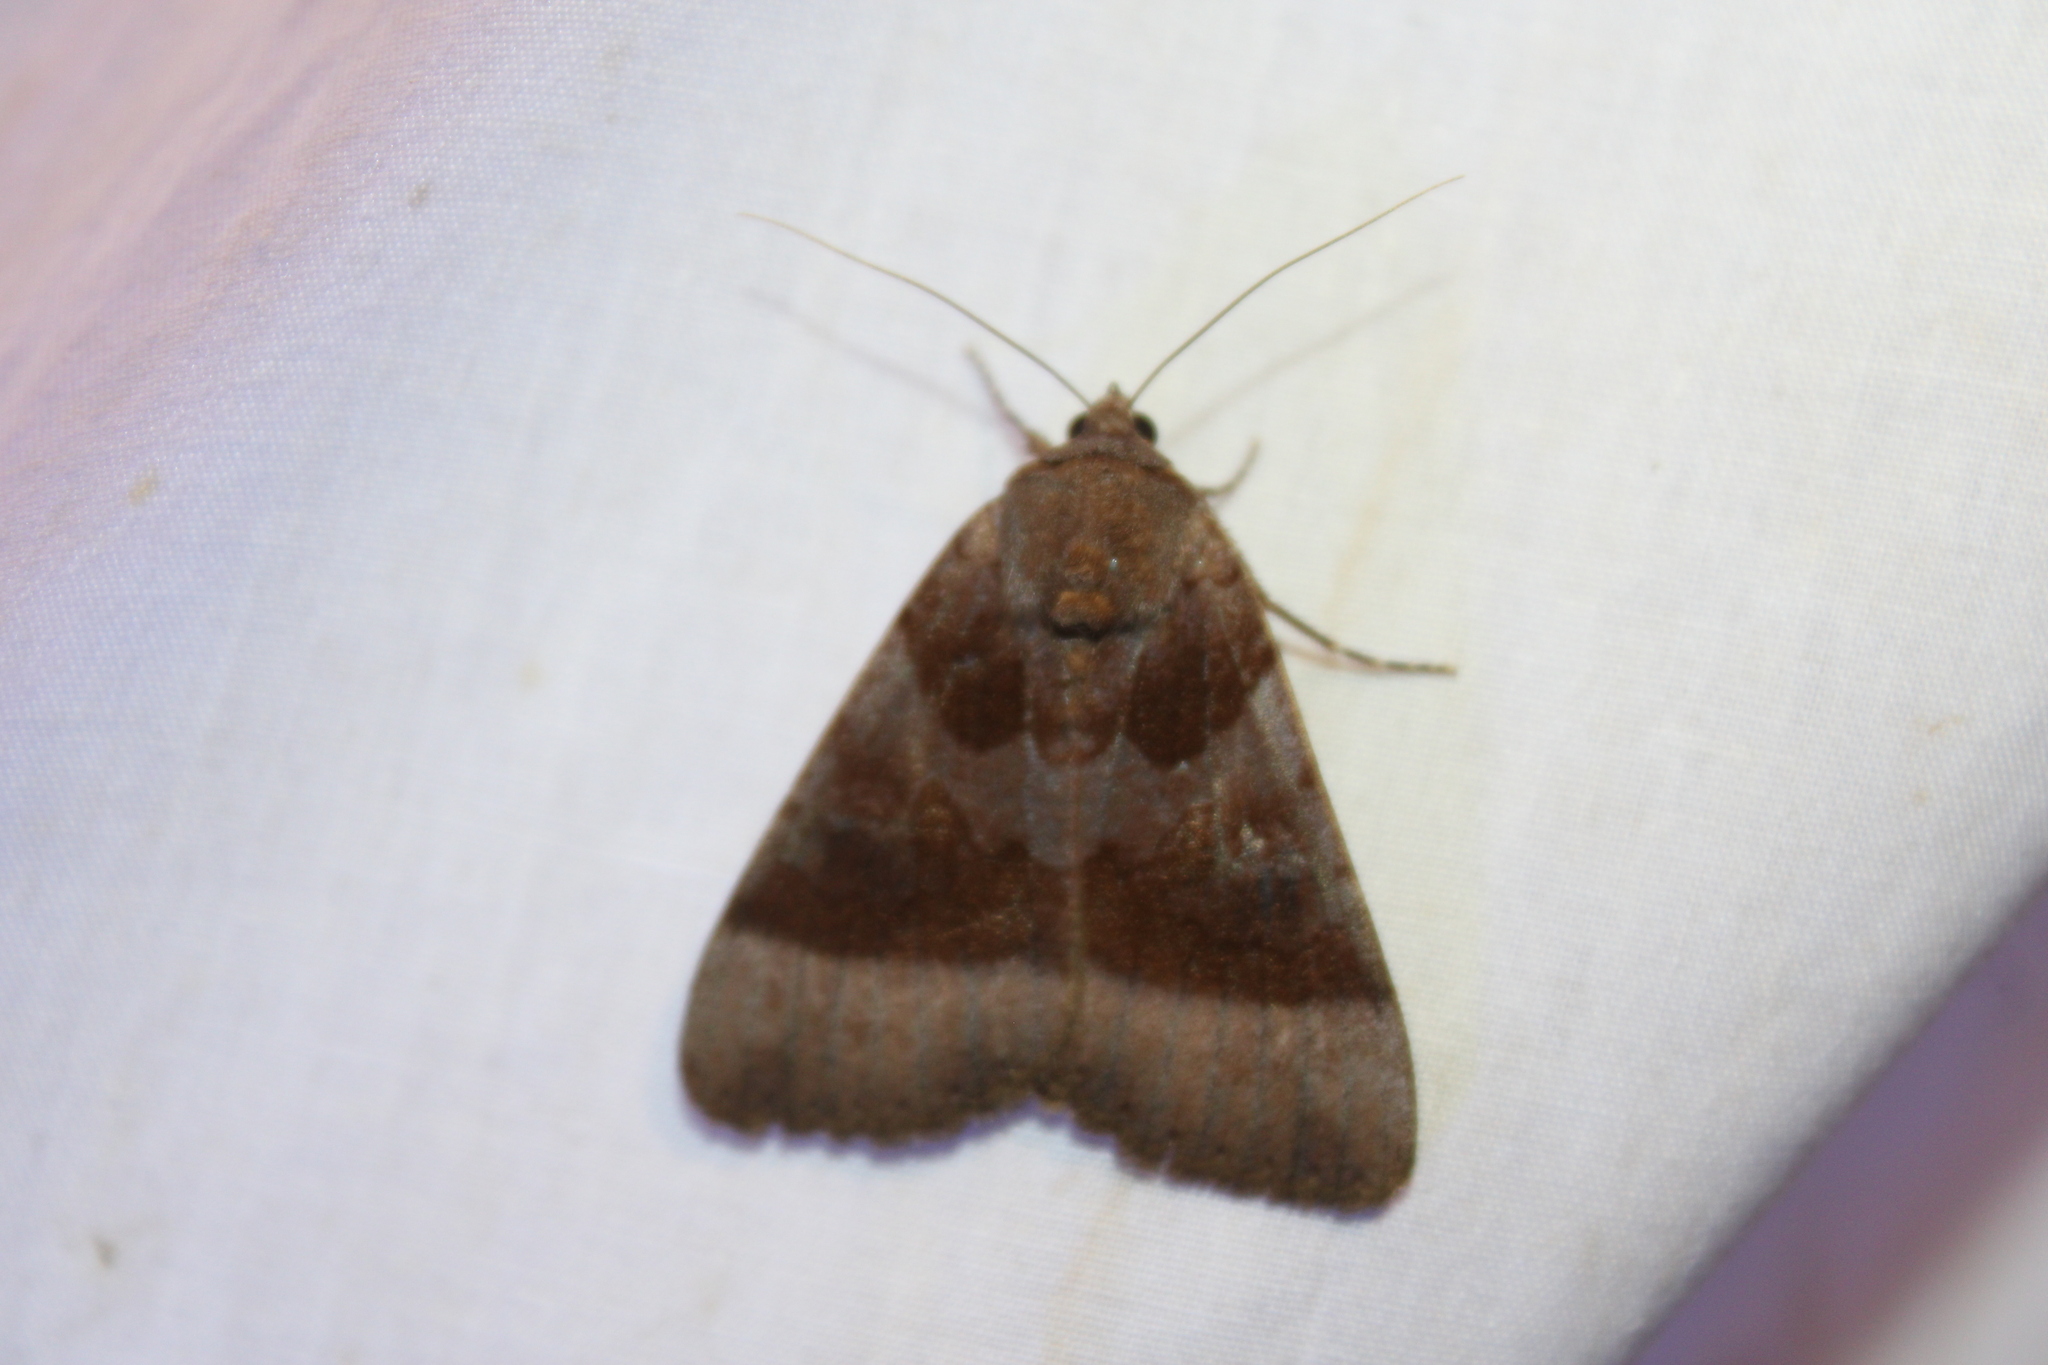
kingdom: Animalia
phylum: Arthropoda
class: Insecta
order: Lepidoptera
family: Erebidae
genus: Catocala
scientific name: Catocala badia
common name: Bay underwing
